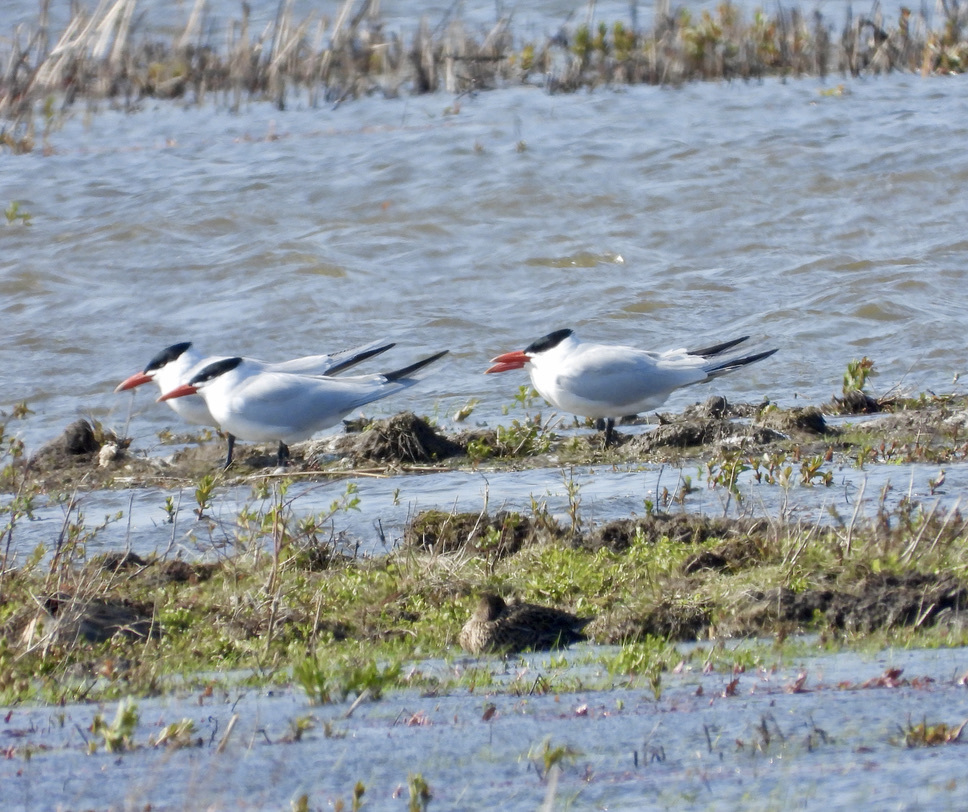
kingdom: Animalia
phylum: Chordata
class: Aves
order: Charadriiformes
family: Laridae
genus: Hydroprogne
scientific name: Hydroprogne caspia
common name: Caspian tern
